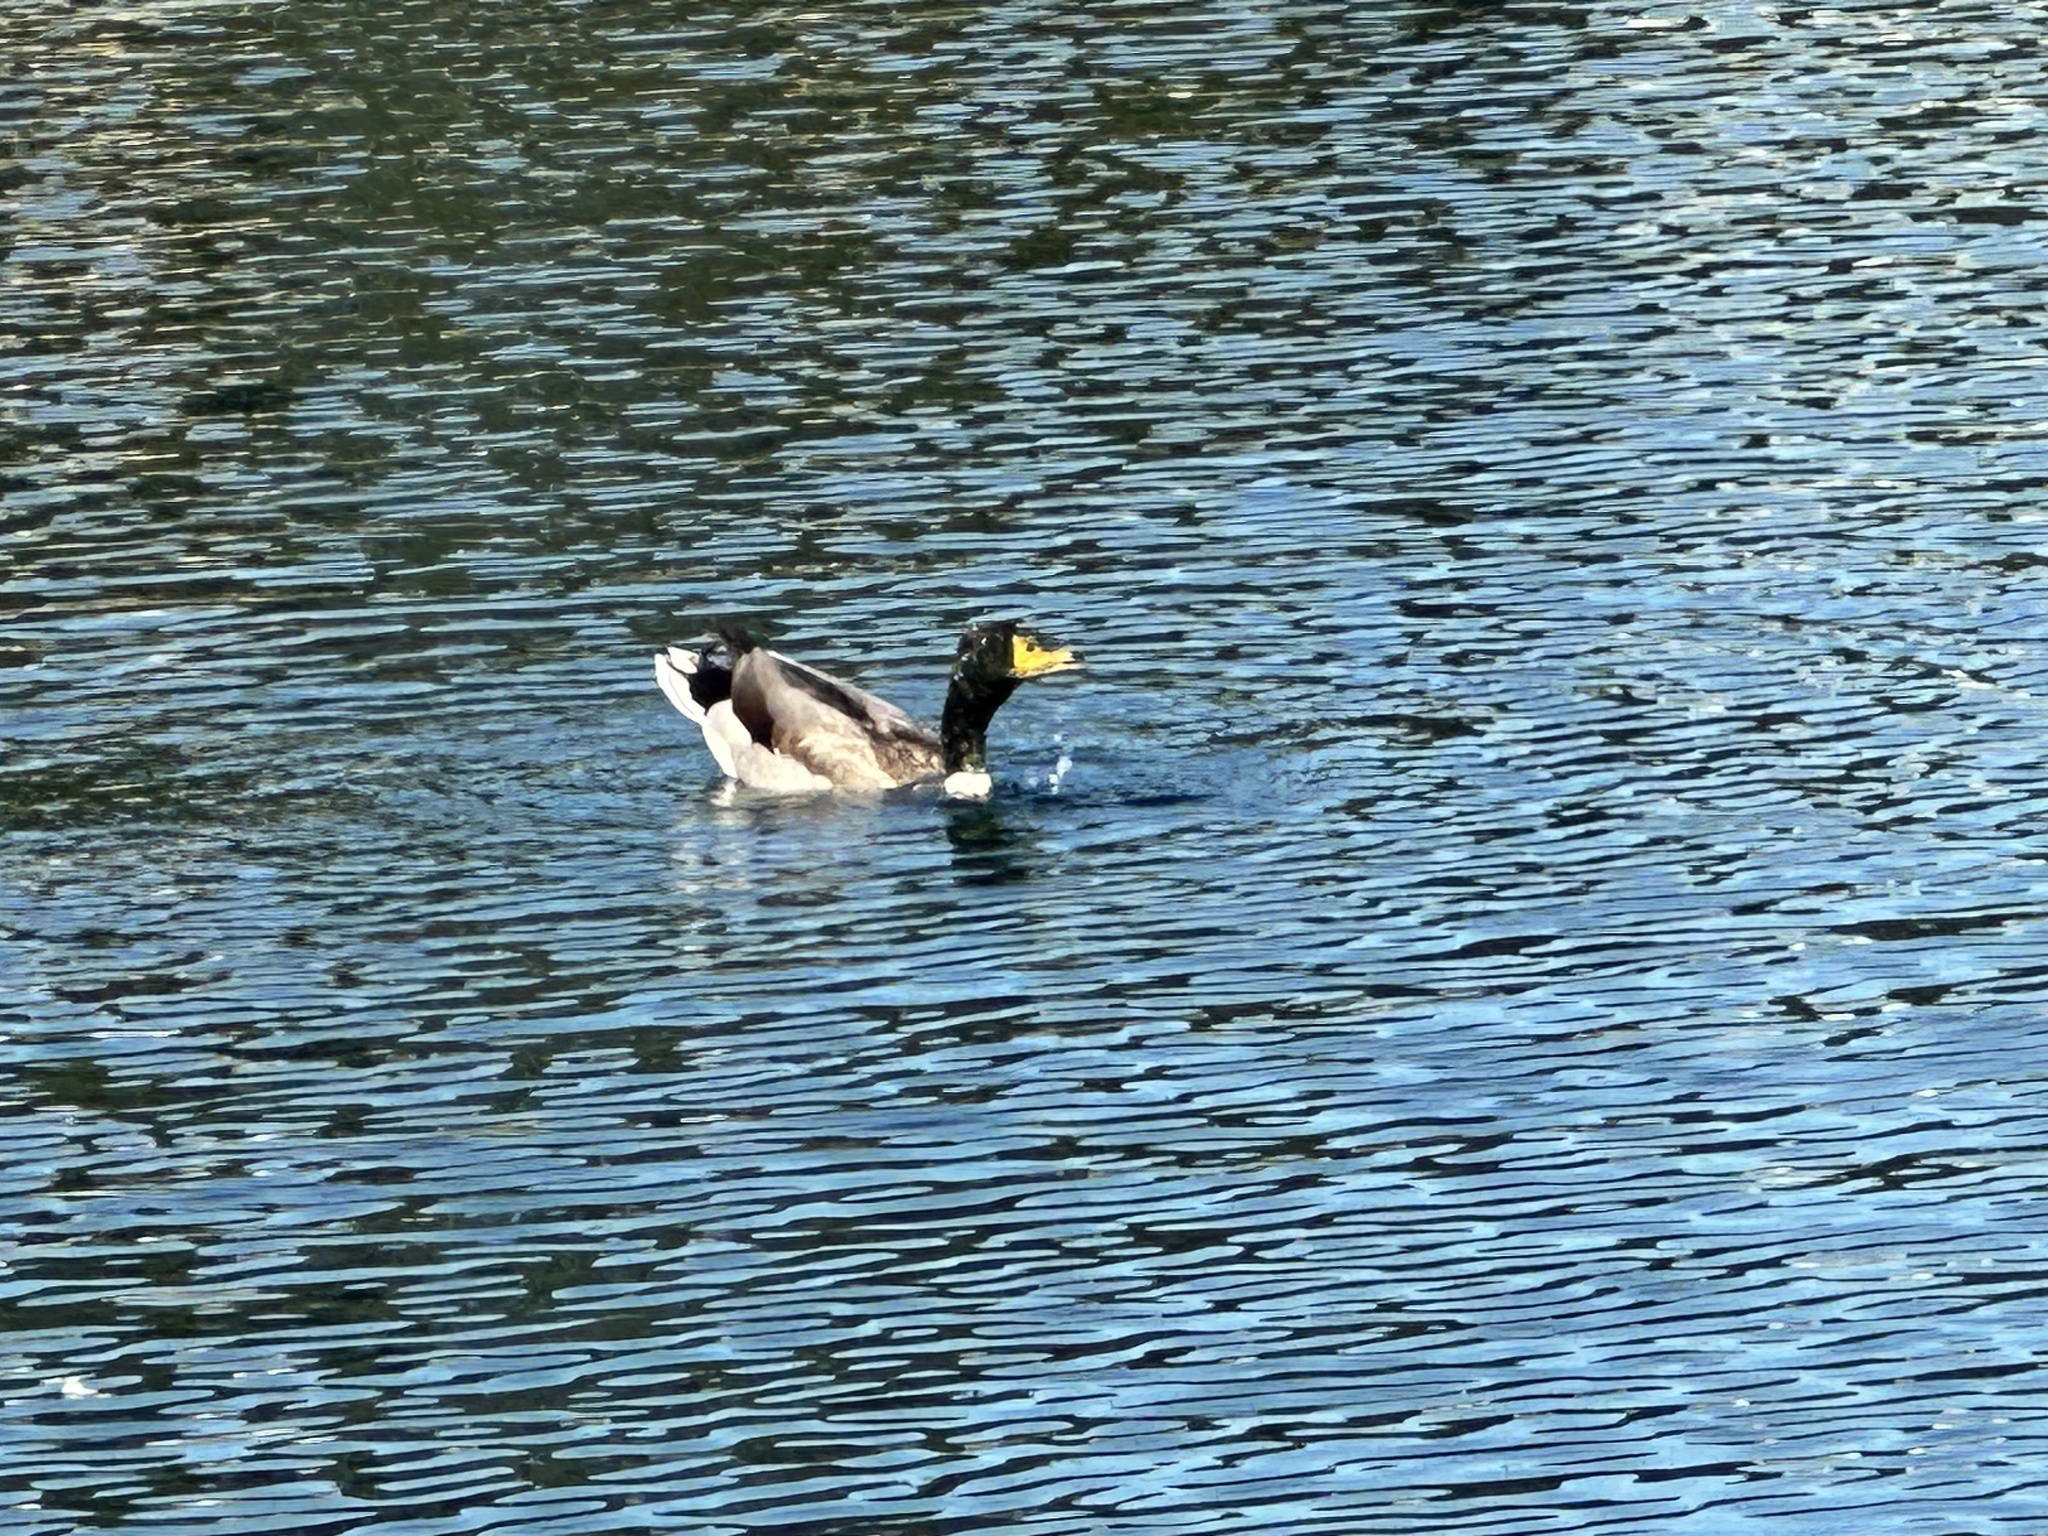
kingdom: Animalia
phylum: Chordata
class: Aves
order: Anseriformes
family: Anatidae
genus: Anas
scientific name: Anas platyrhynchos
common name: Mallard
